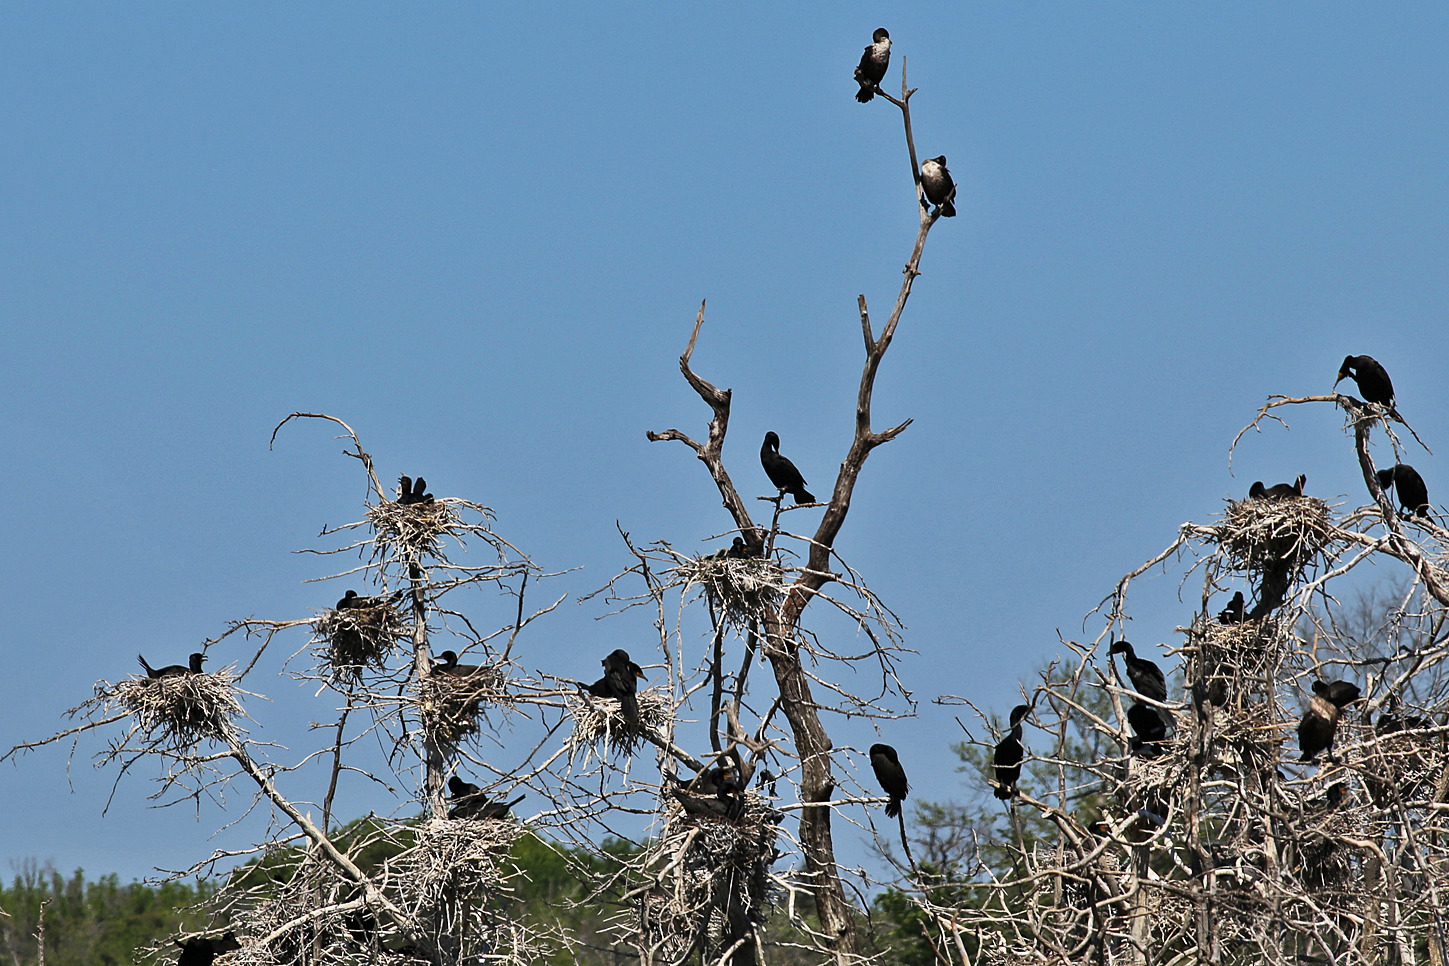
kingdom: Animalia
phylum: Chordata
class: Aves
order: Suliformes
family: Phalacrocoracidae
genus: Phalacrocorax
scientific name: Phalacrocorax auritus
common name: Double-crested cormorant
